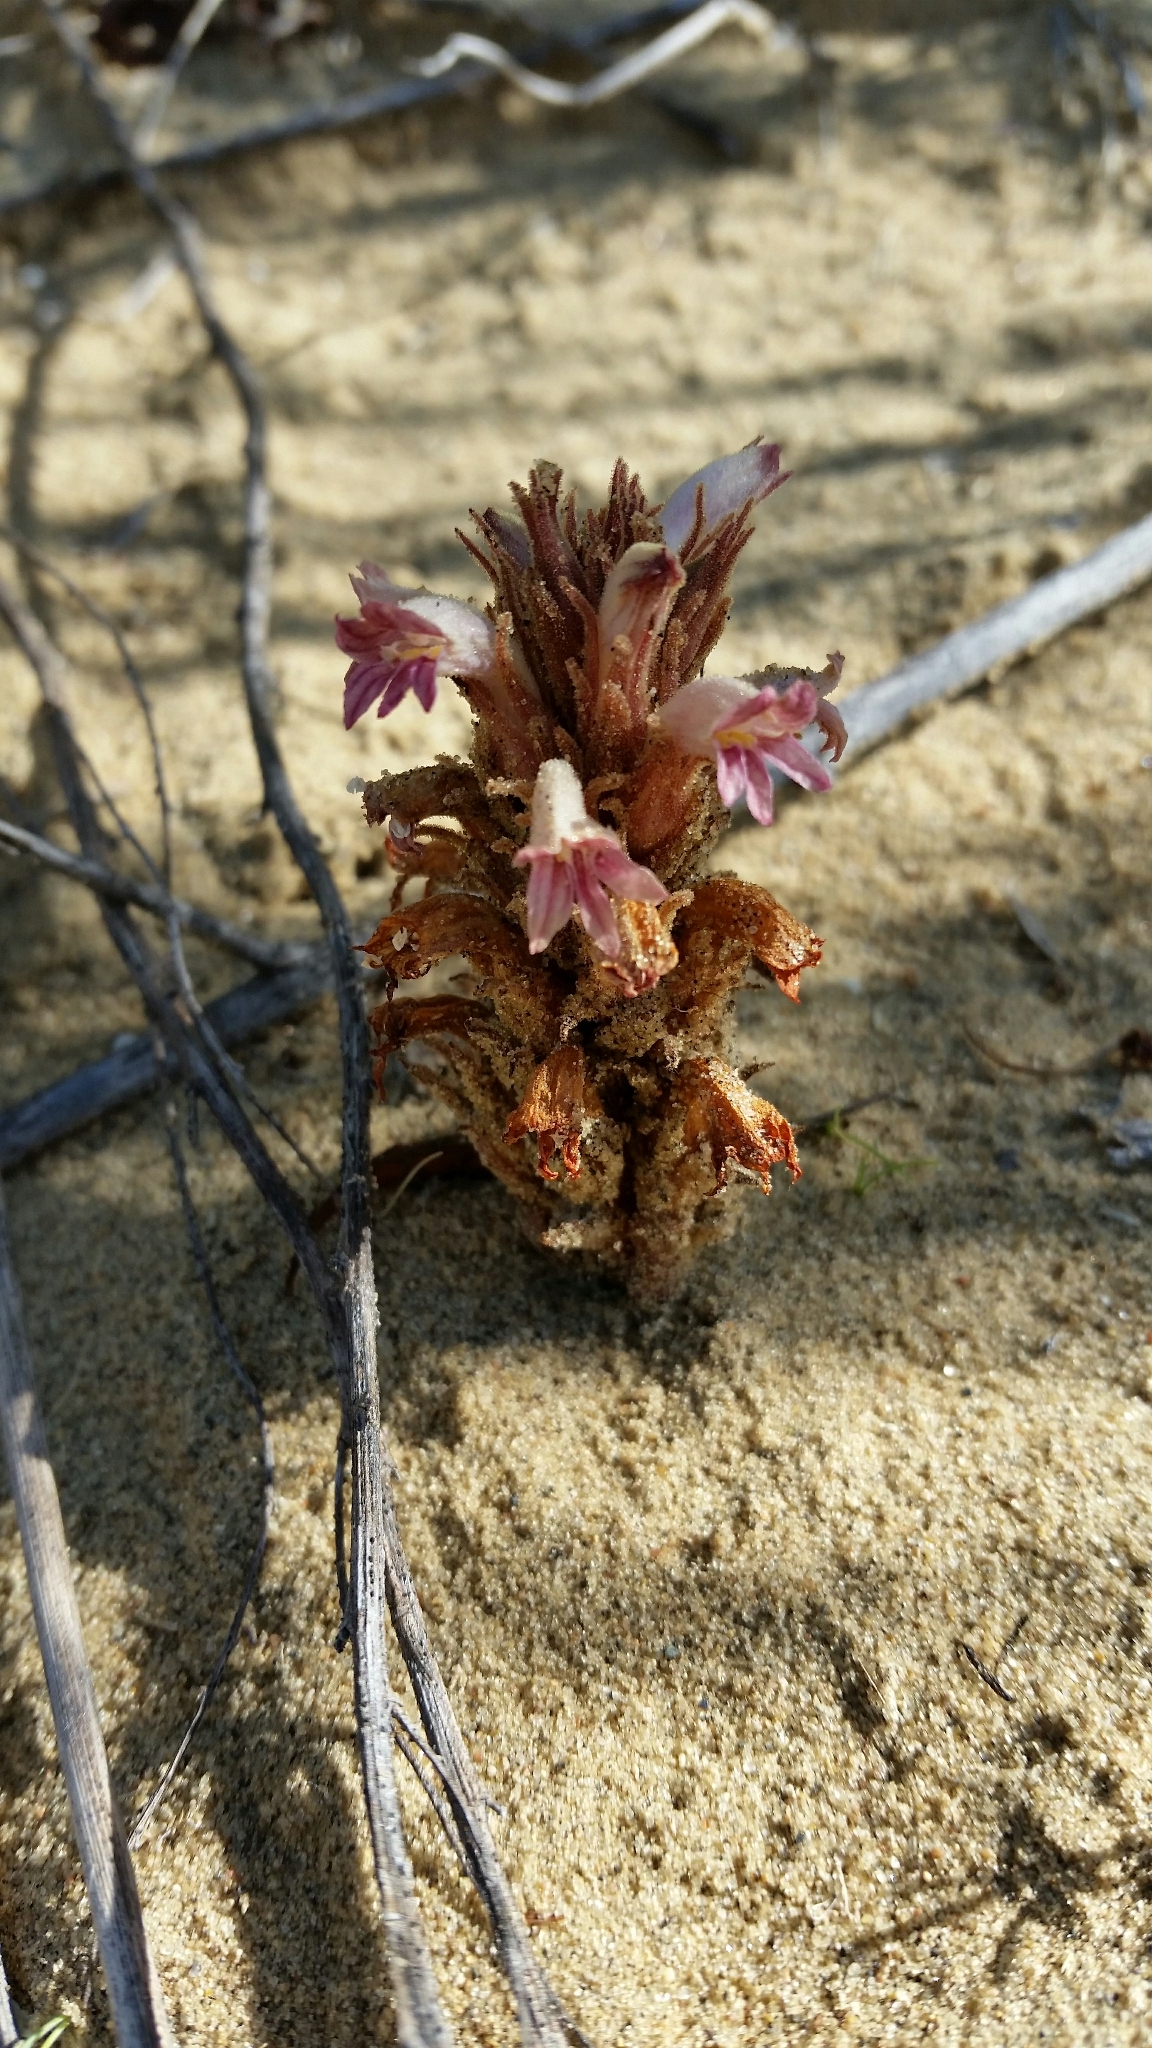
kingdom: Plantae
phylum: Tracheophyta
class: Magnoliopsida
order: Lamiales
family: Orobanchaceae
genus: Aphyllon
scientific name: Aphyllon ludovicianum
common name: Louisiana broomrape
